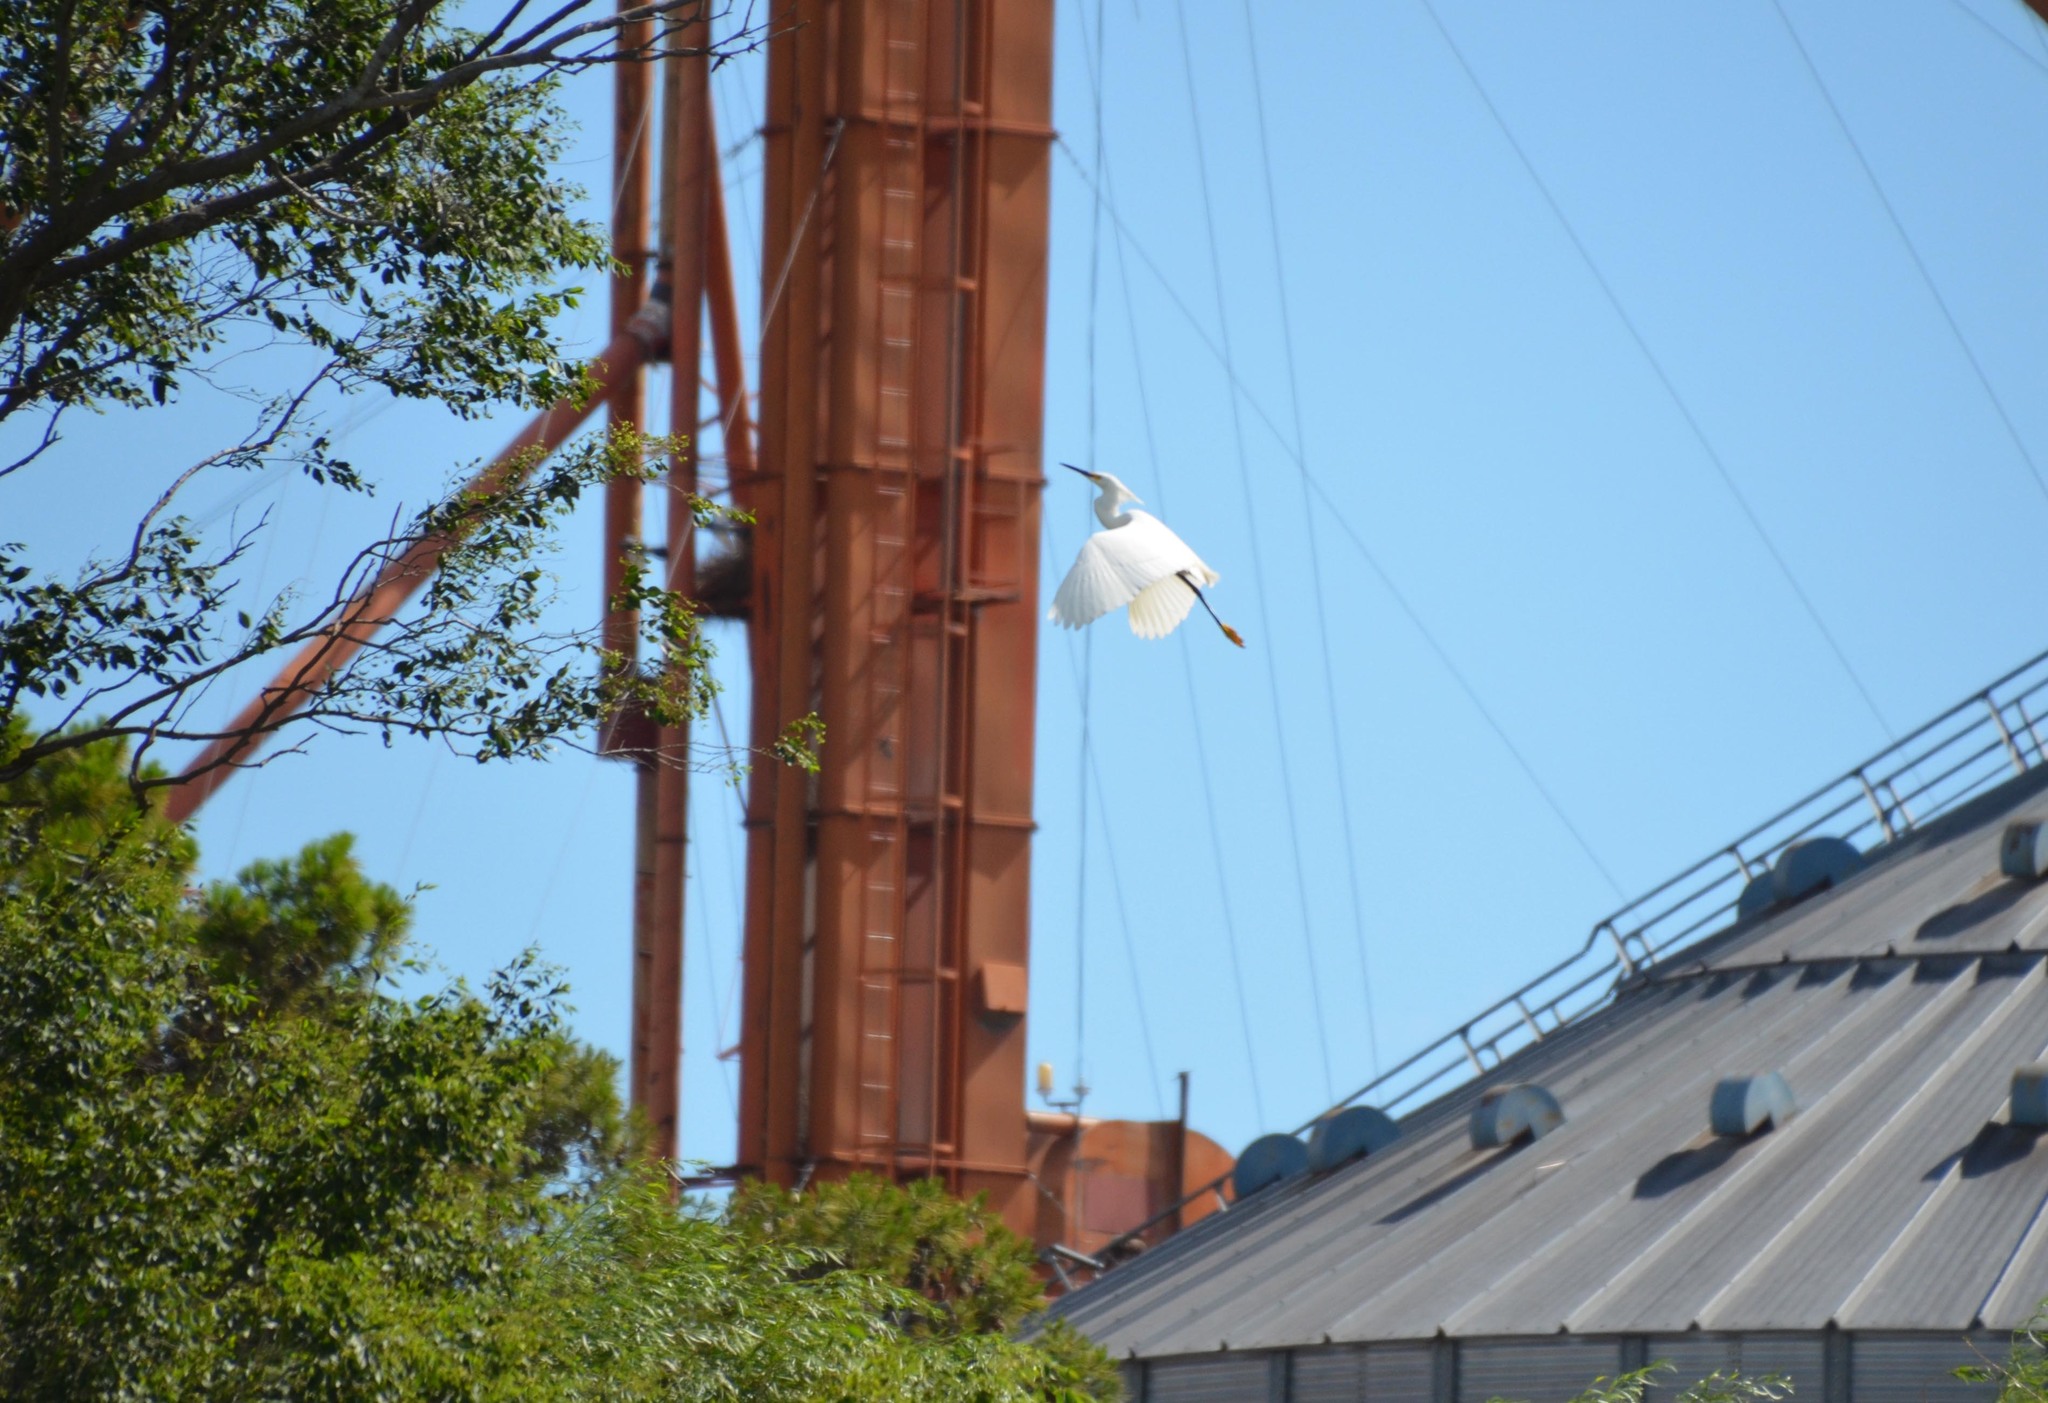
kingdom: Animalia
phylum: Chordata
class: Aves
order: Pelecaniformes
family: Ardeidae
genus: Egretta
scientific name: Egretta thula
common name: Snowy egret
